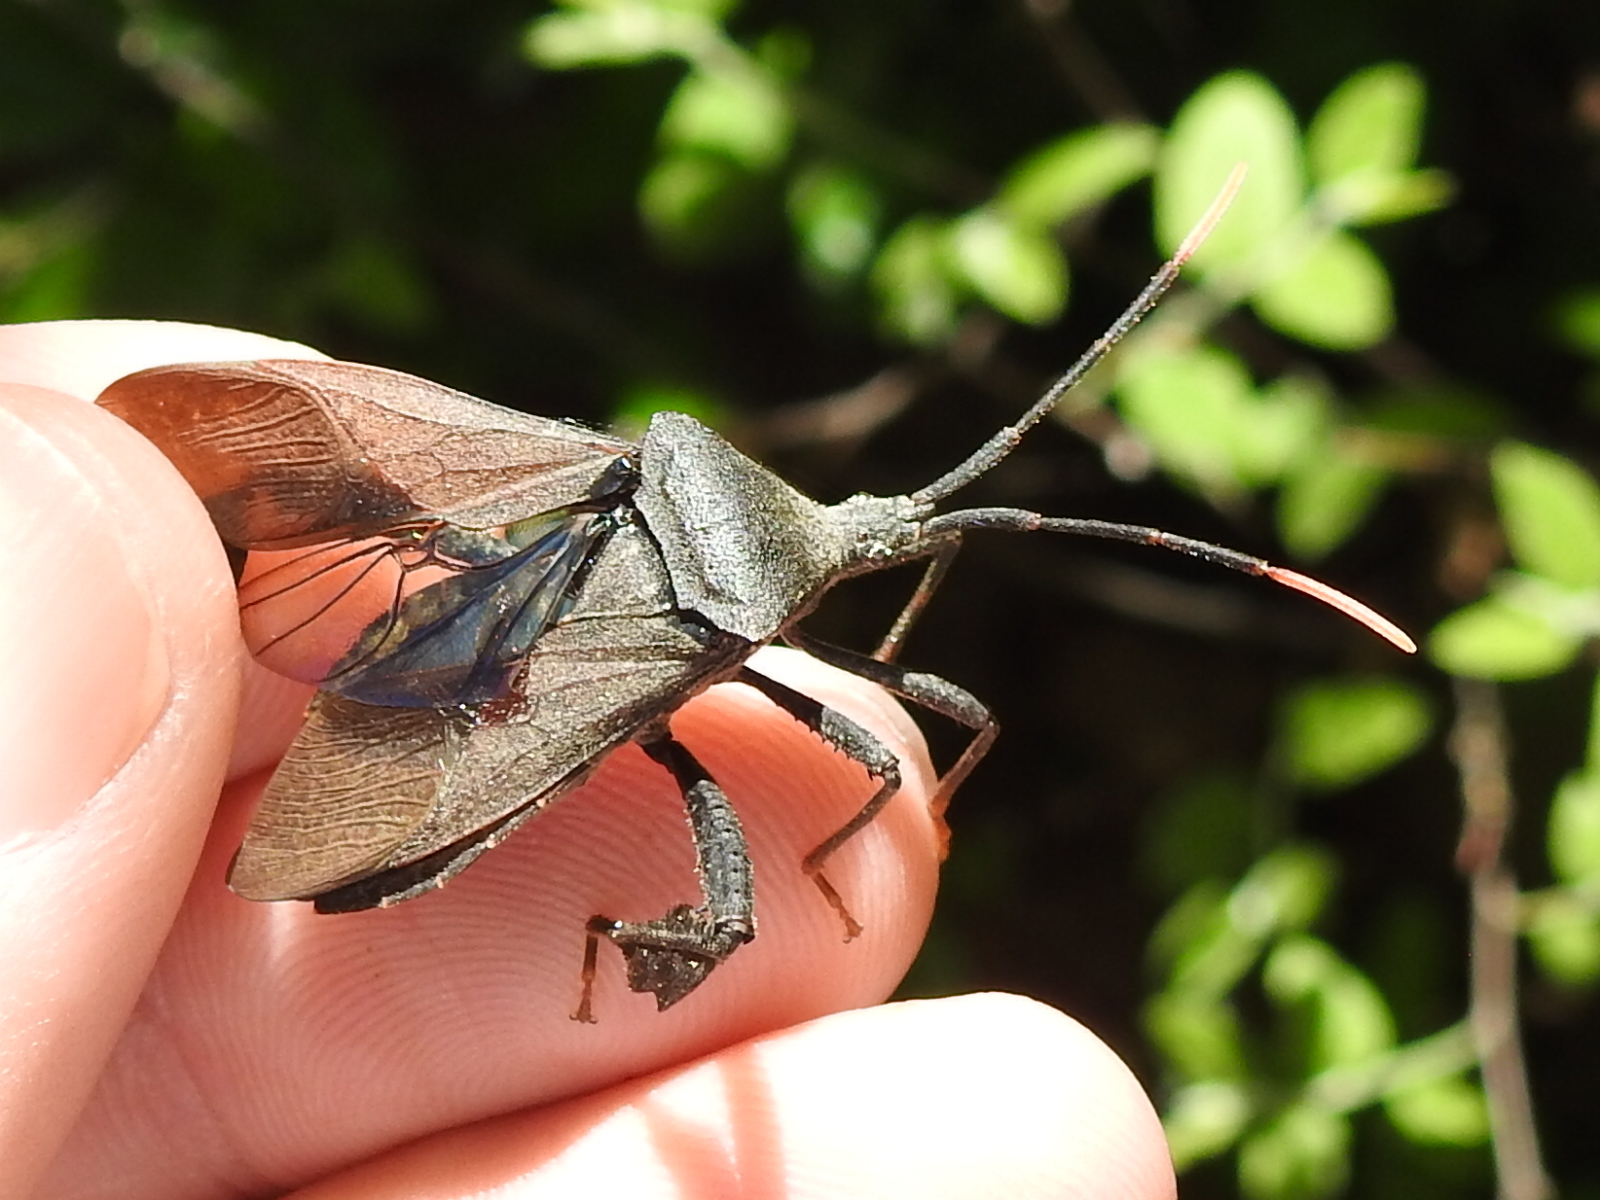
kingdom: Animalia
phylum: Arthropoda
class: Insecta
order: Hemiptera
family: Coreidae
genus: Acanthocephala
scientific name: Acanthocephala terminalis
